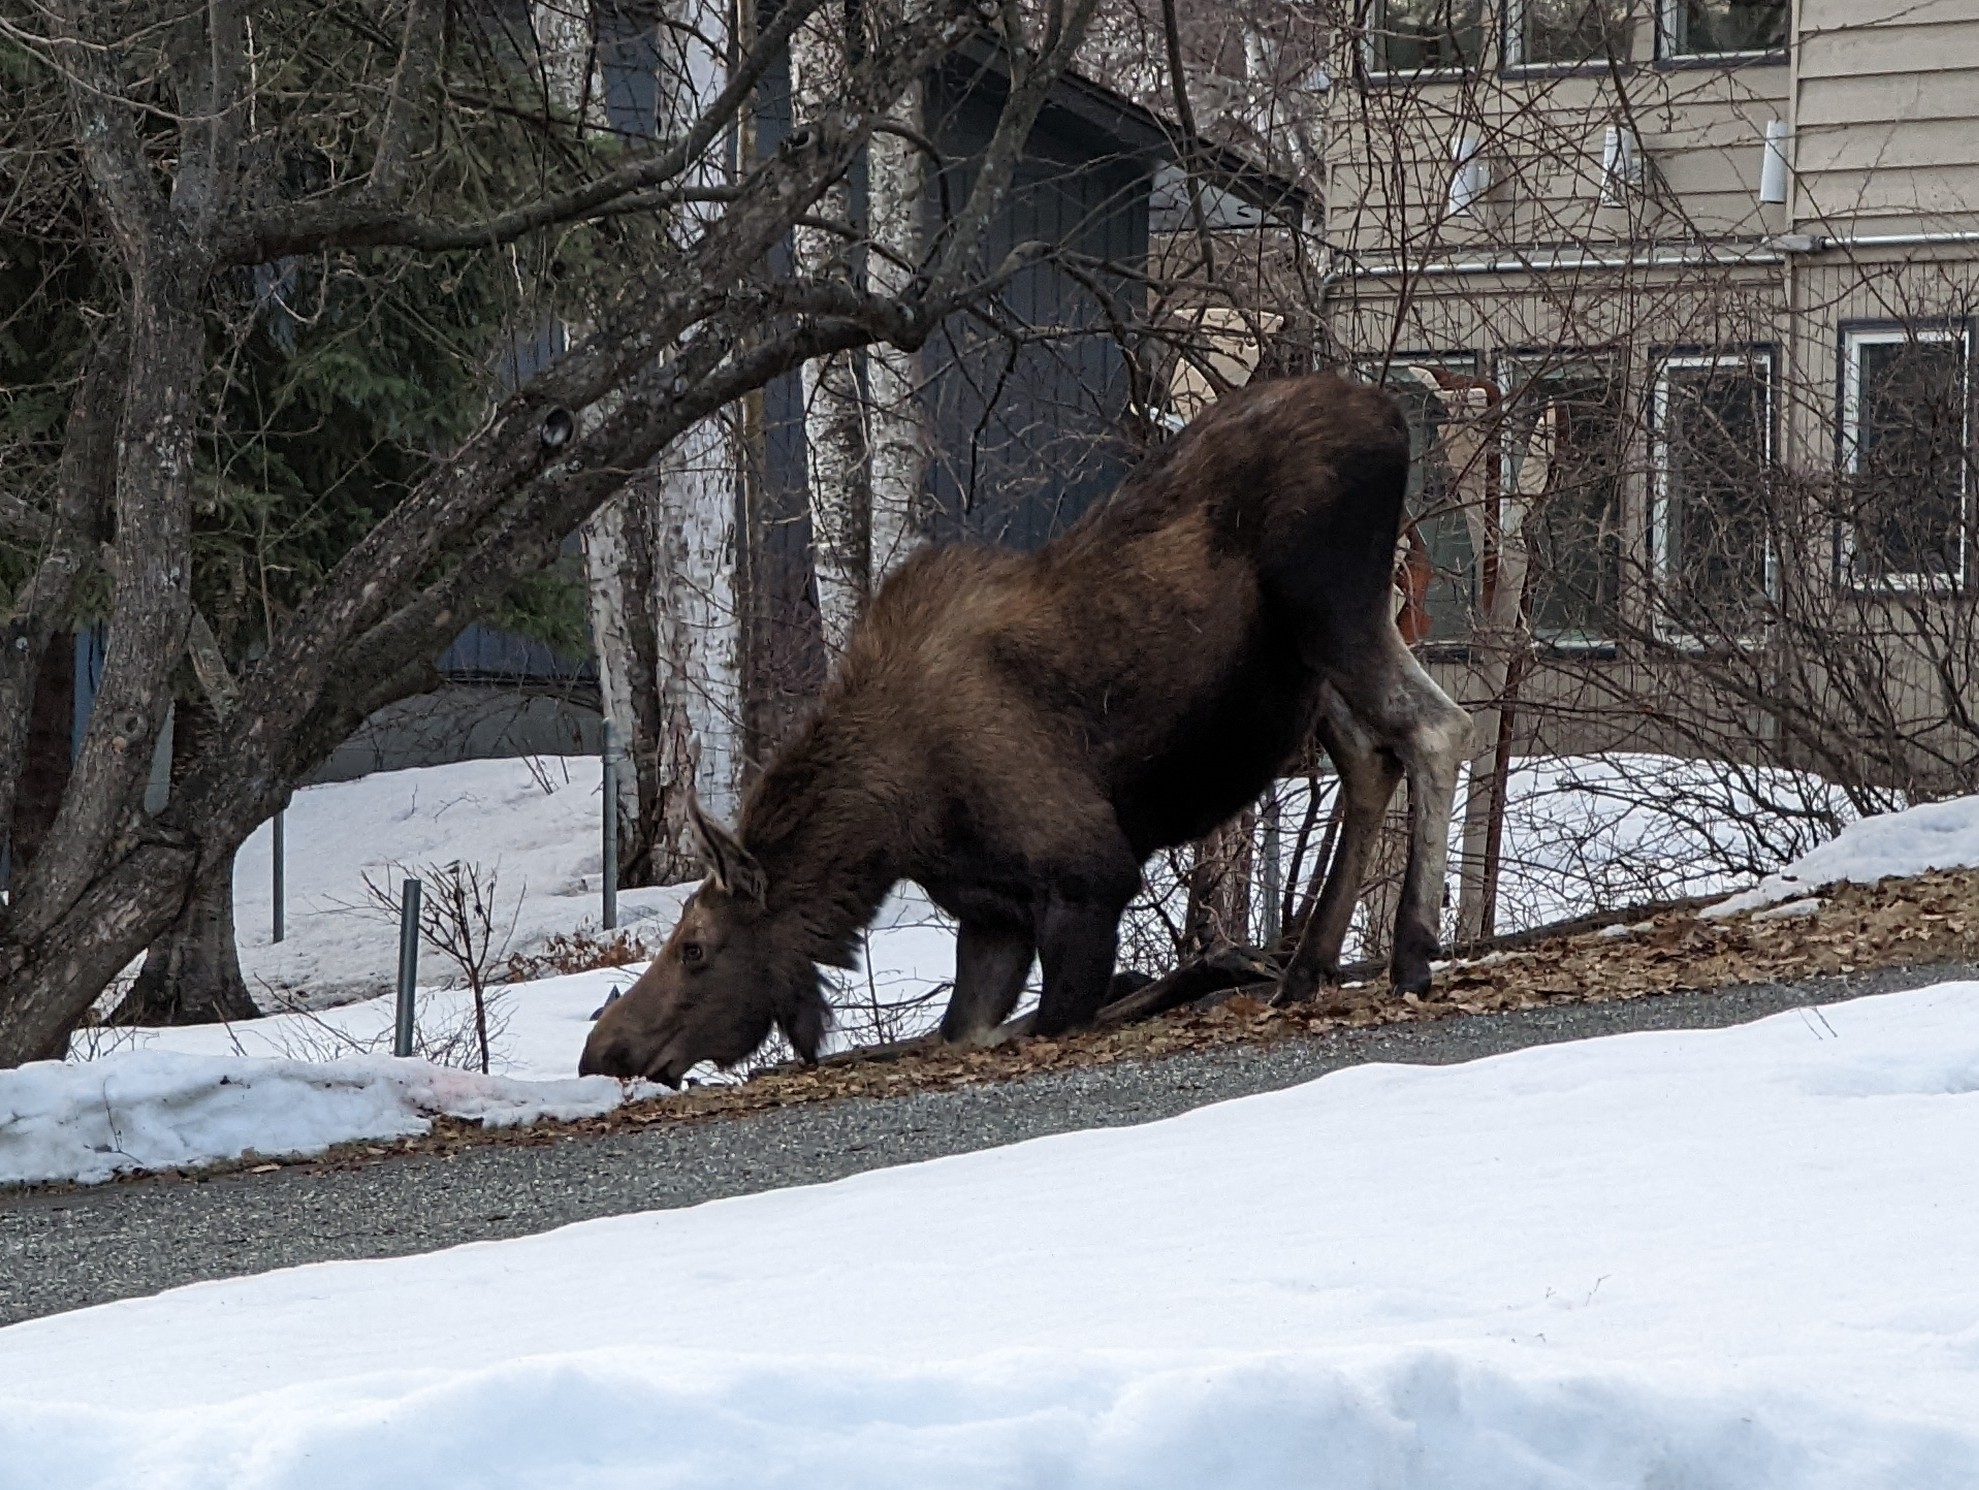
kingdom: Animalia
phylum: Chordata
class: Mammalia
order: Artiodactyla
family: Cervidae
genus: Alces
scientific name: Alces alces
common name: Moose
